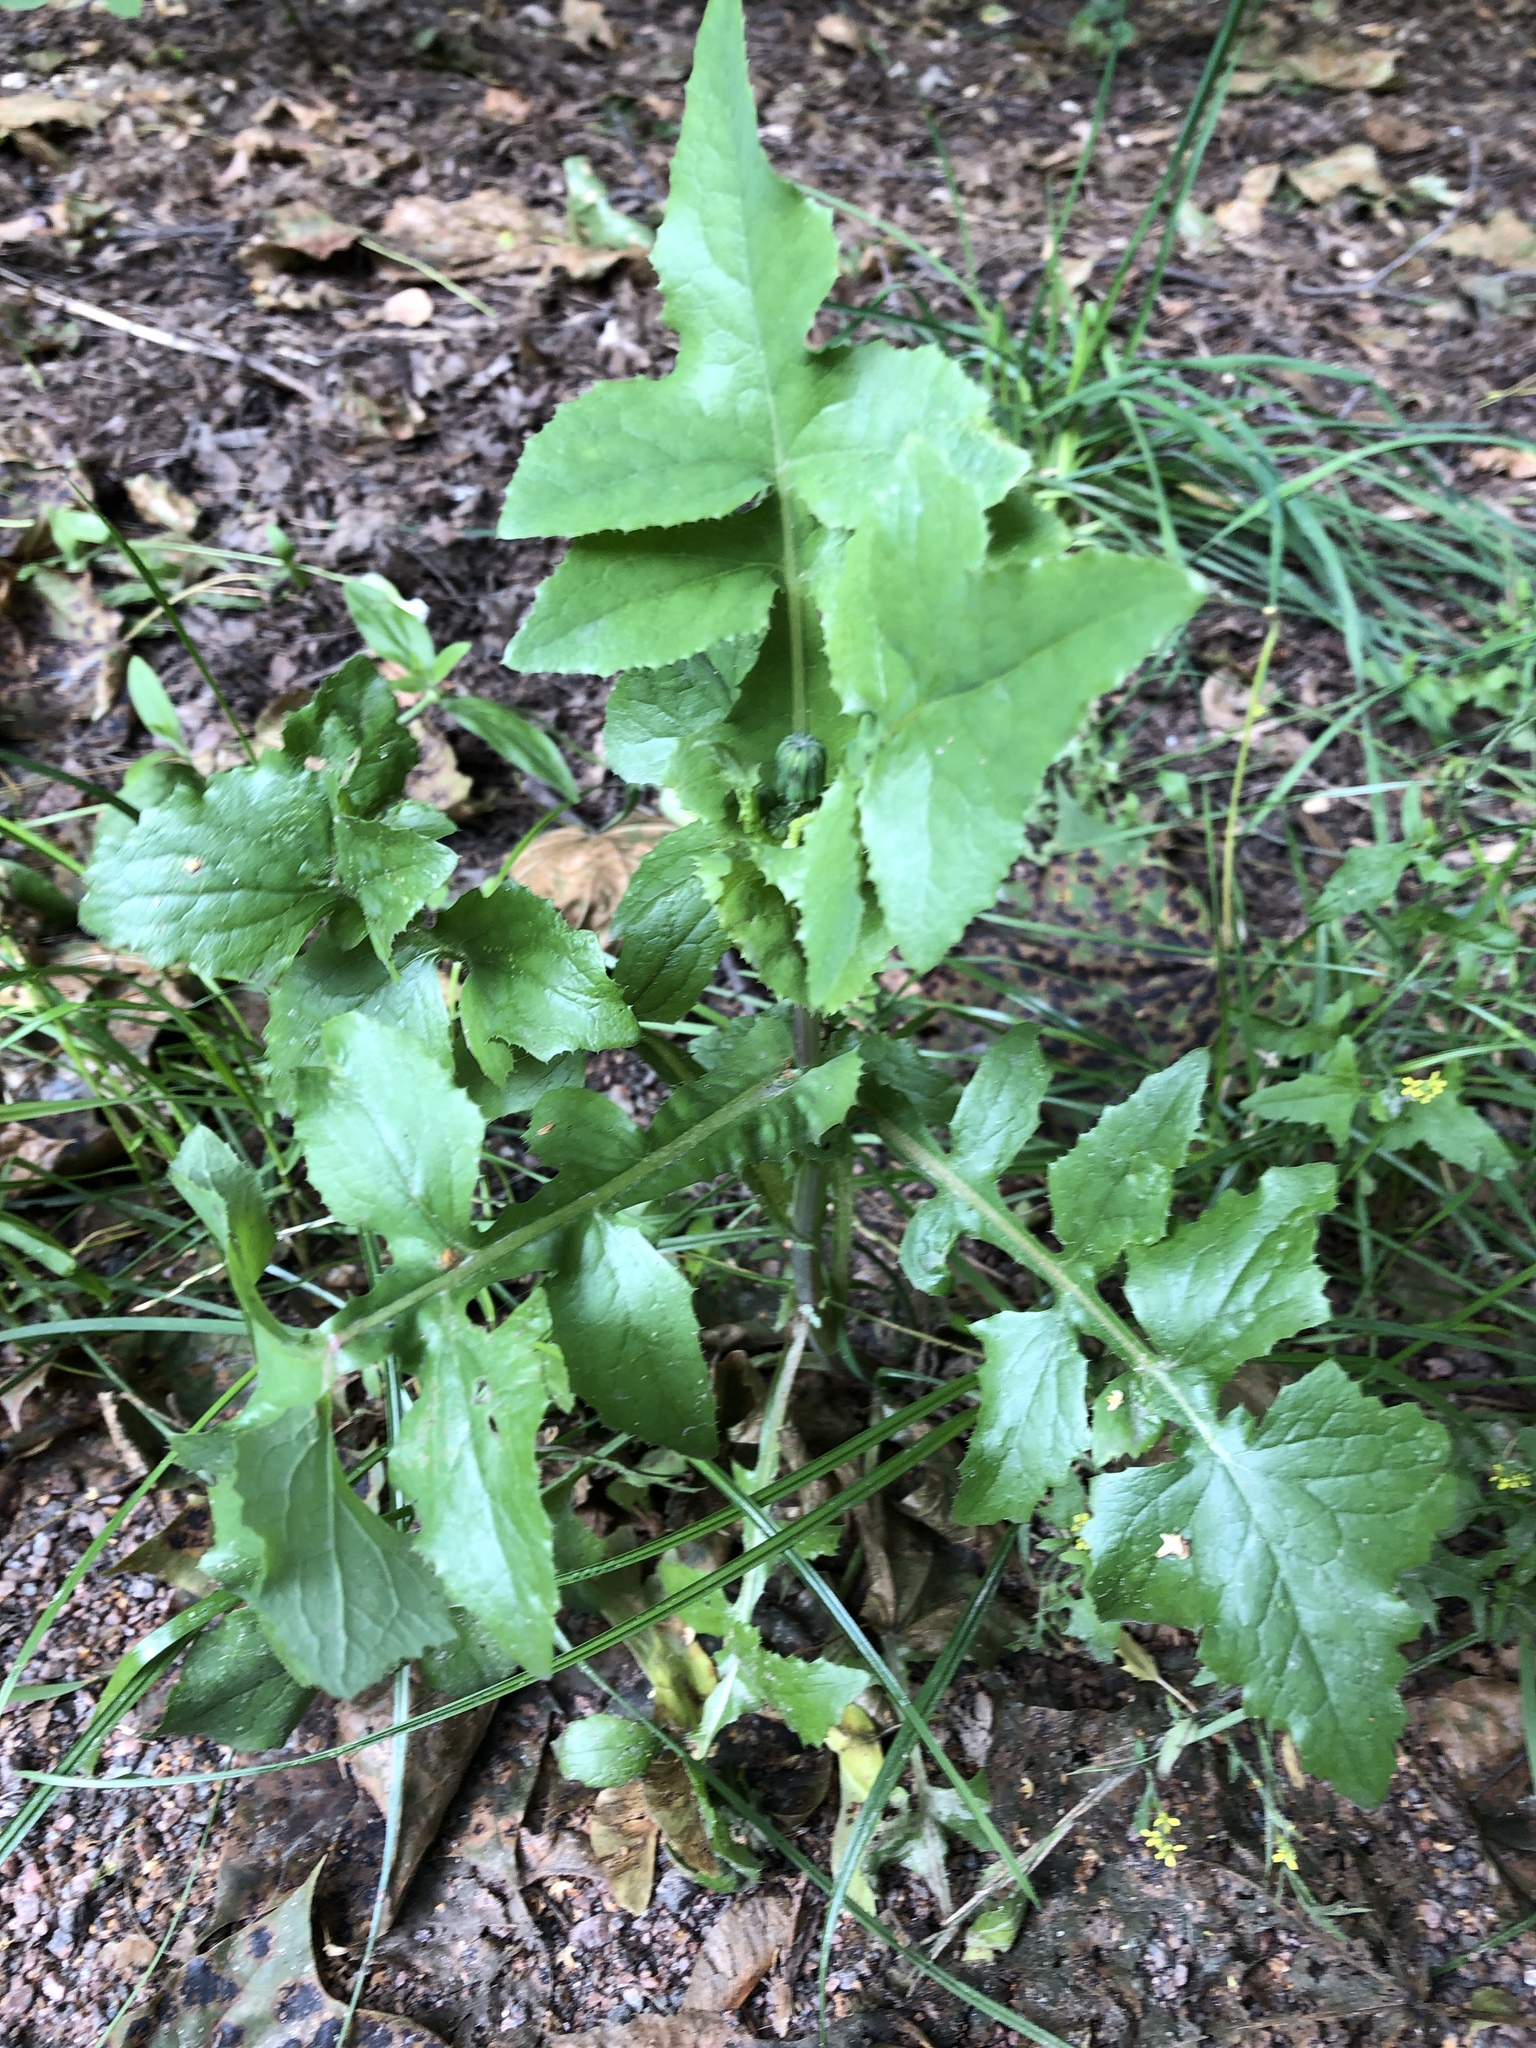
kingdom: Plantae
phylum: Tracheophyta
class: Magnoliopsida
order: Asterales
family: Asteraceae
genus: Sonchus
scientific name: Sonchus oleraceus
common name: Common sowthistle
